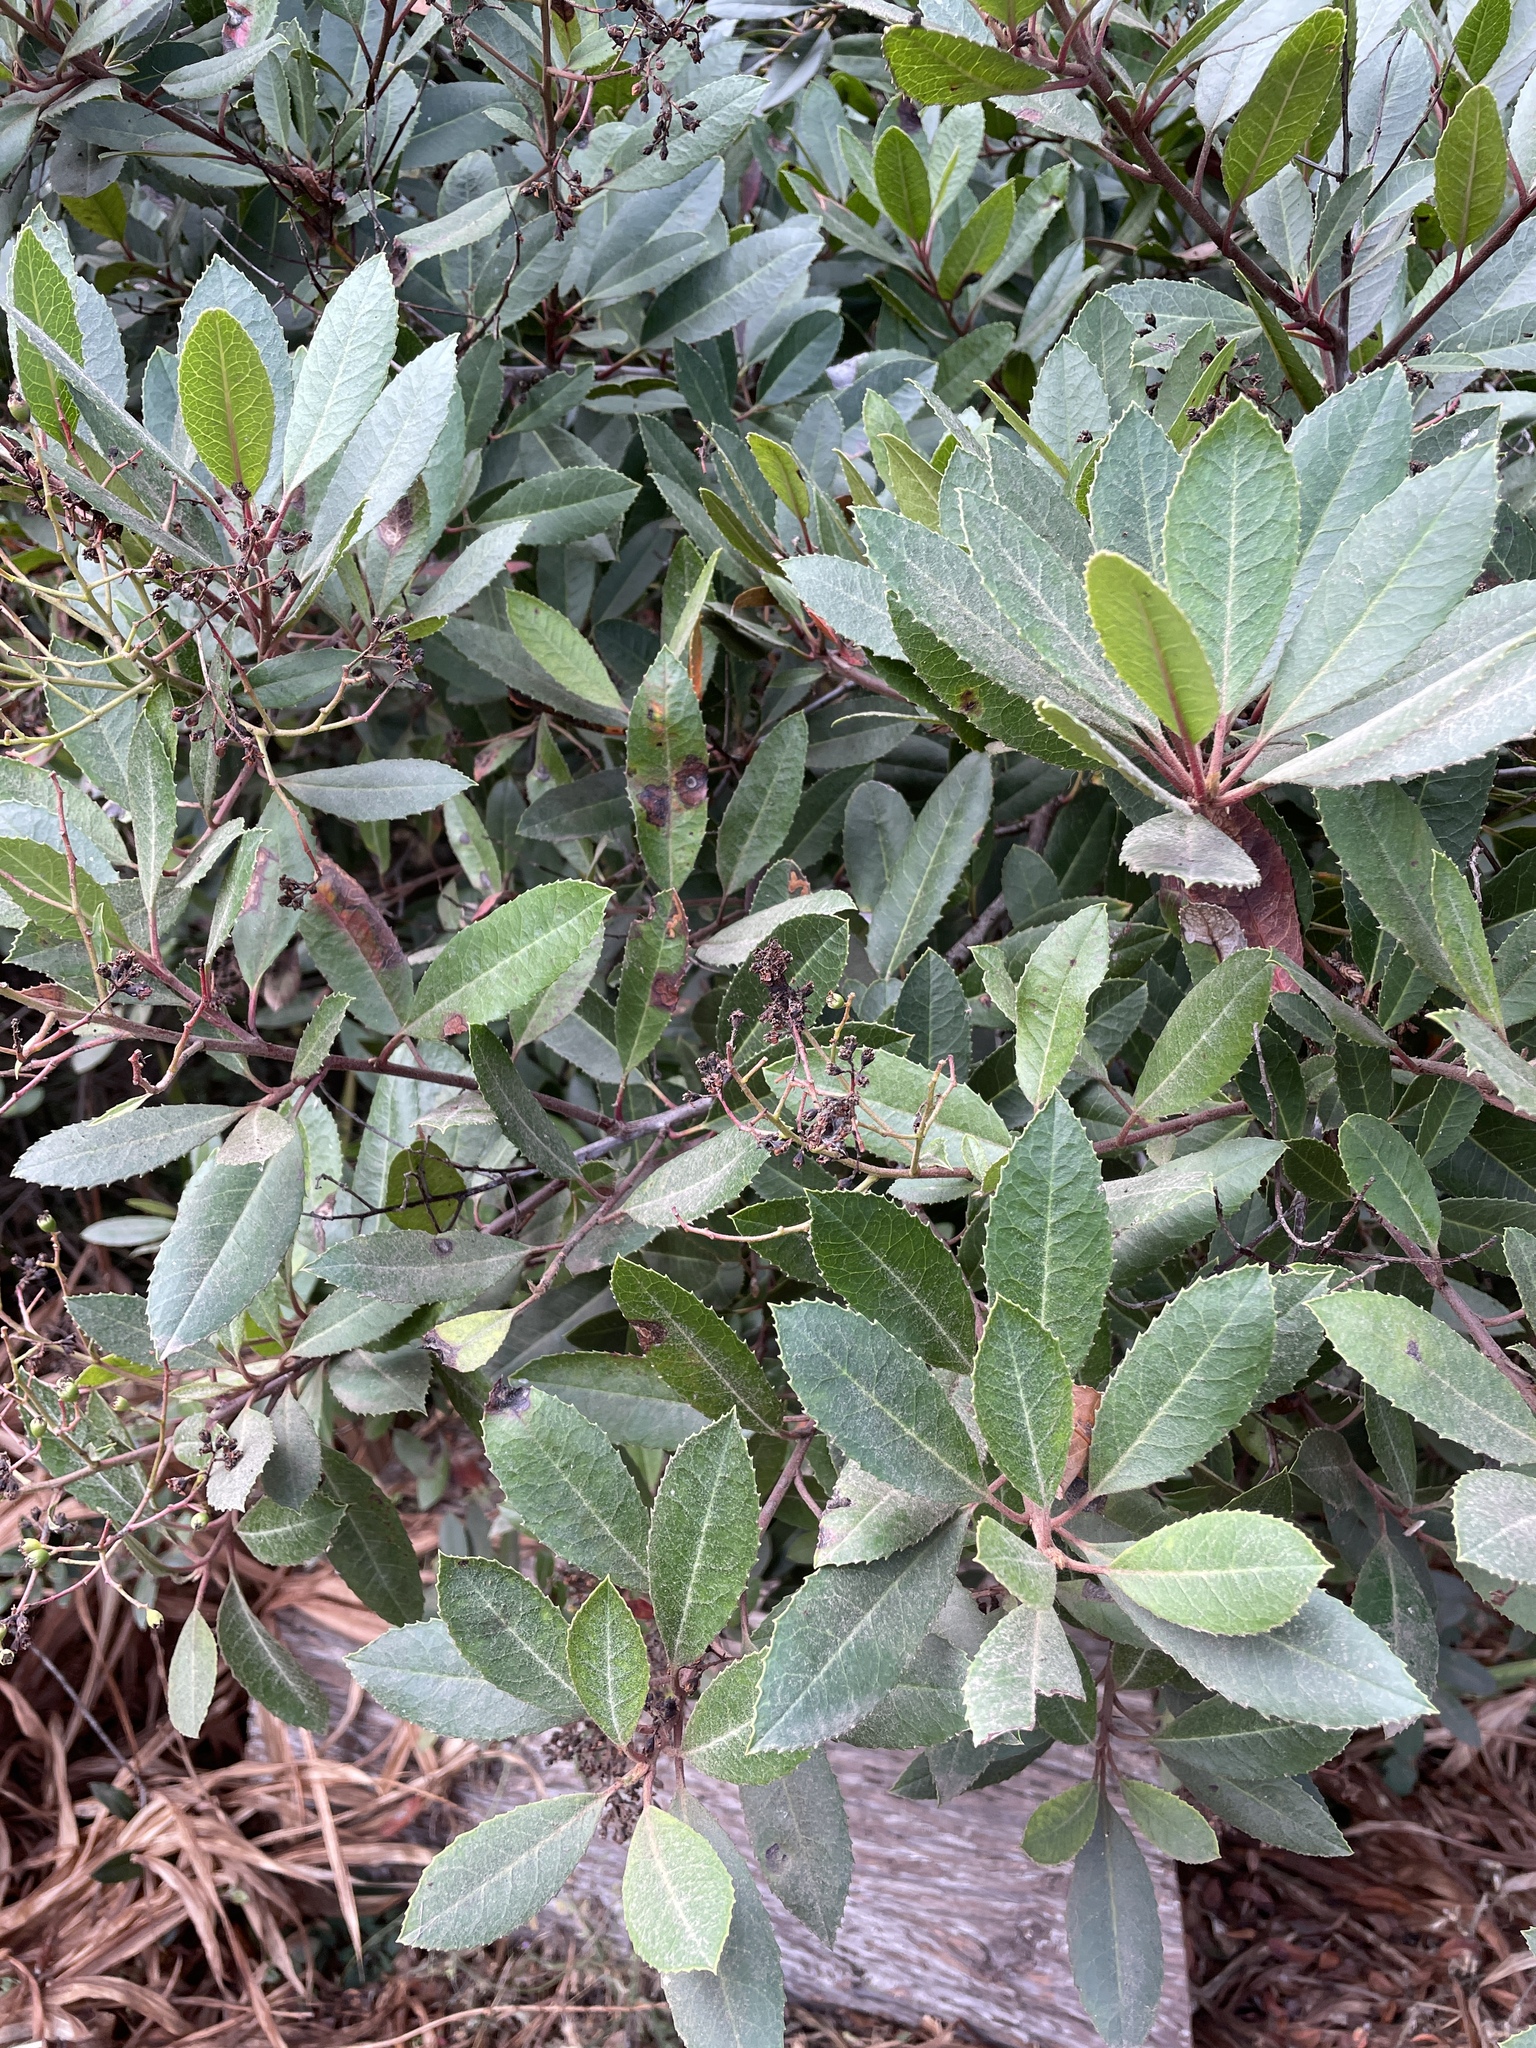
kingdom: Plantae
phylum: Tracheophyta
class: Magnoliopsida
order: Rosales
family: Rosaceae
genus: Heteromeles
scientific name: Heteromeles arbutifolia
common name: California-holly
